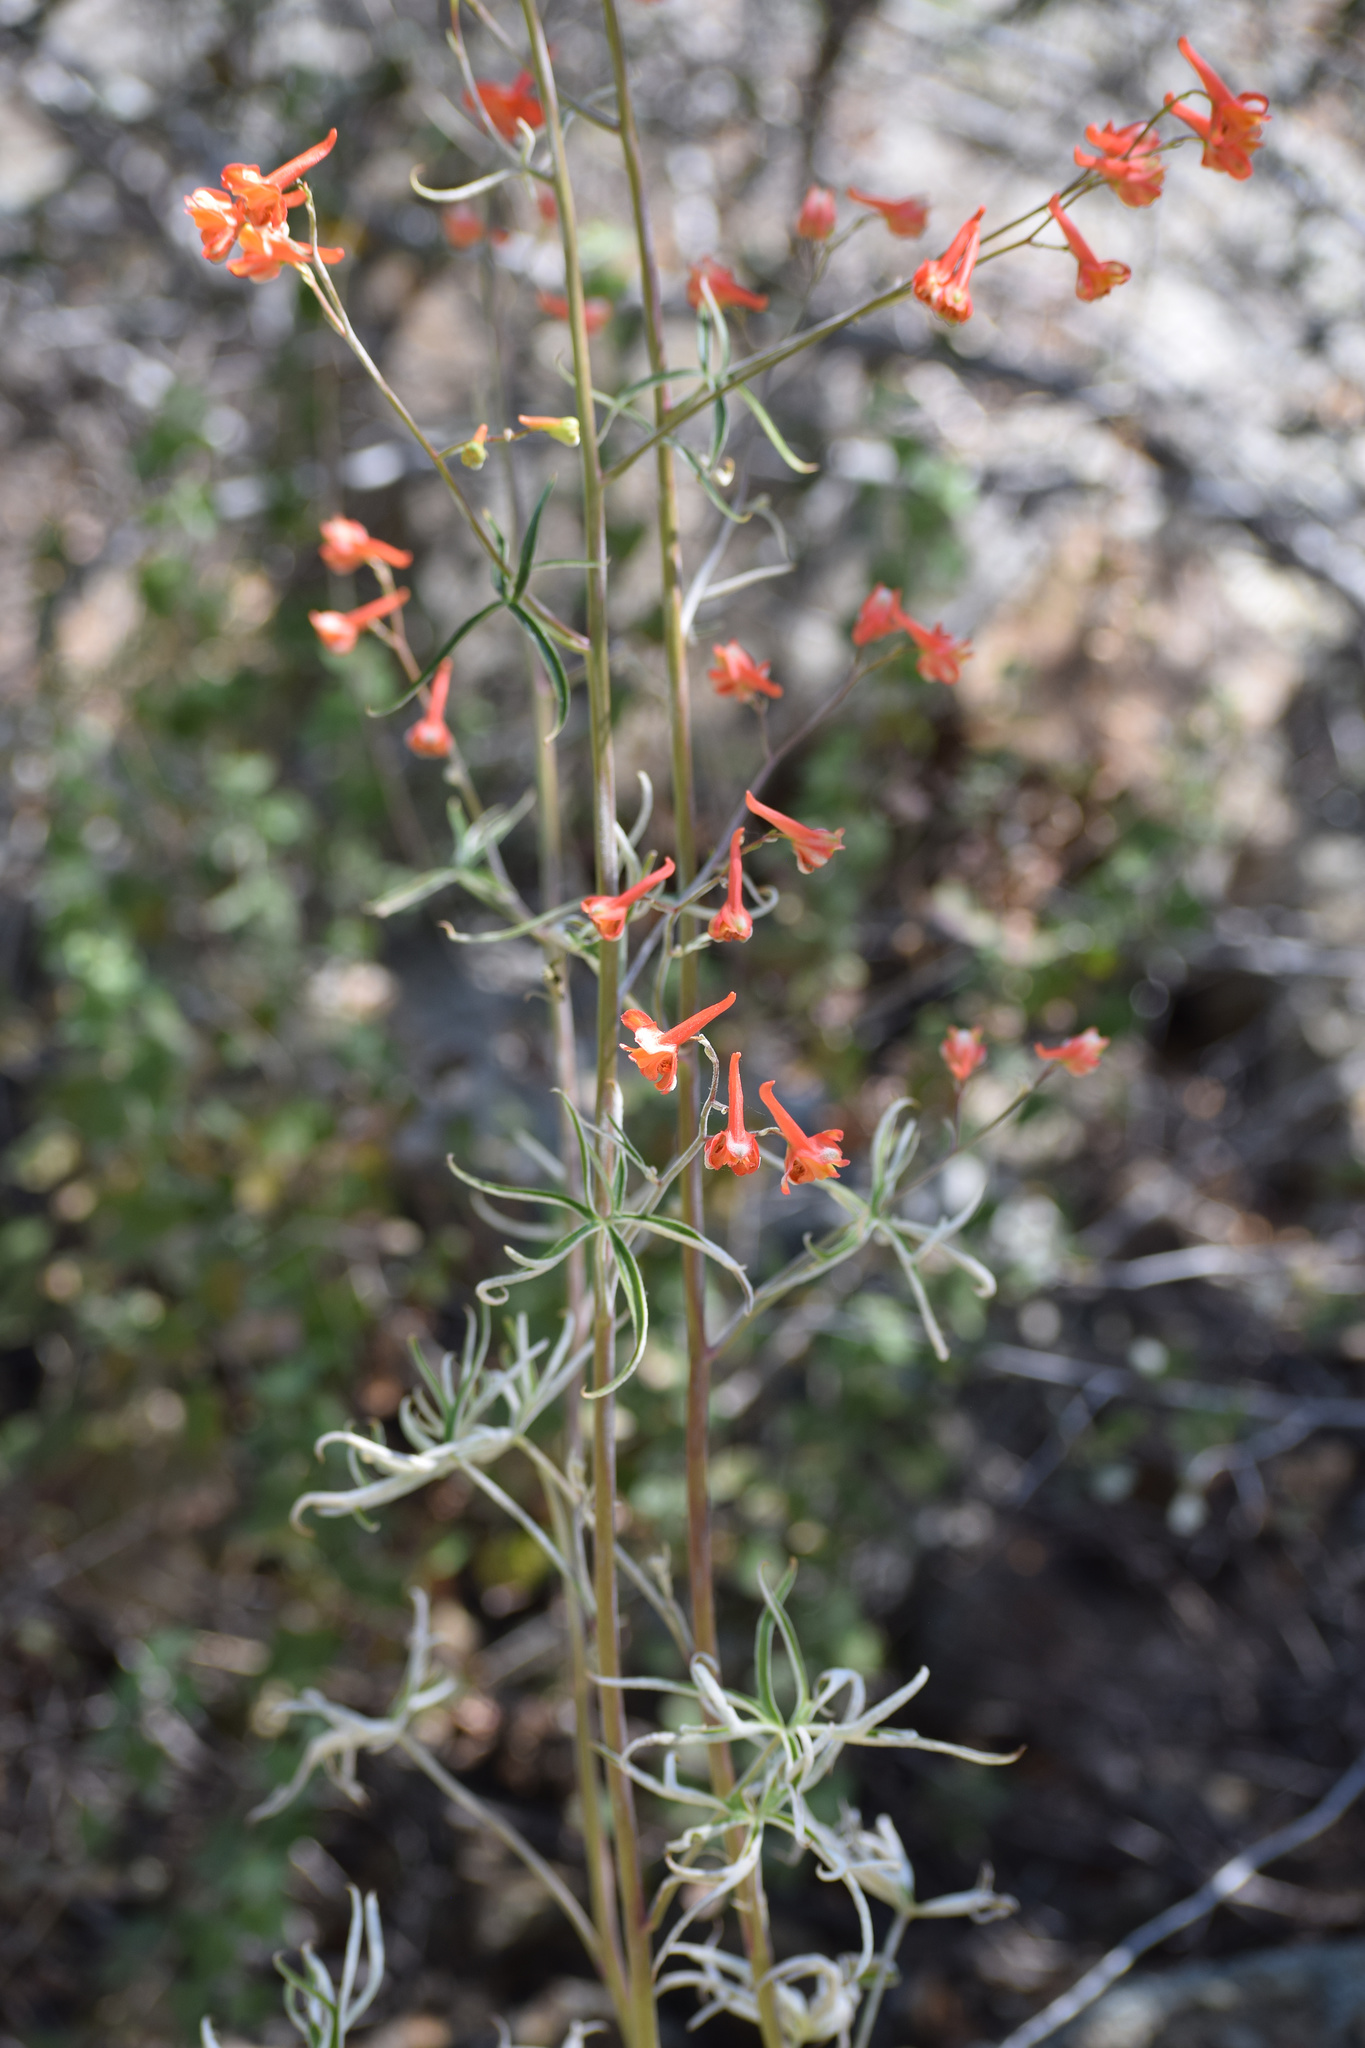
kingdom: Plantae
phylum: Tracheophyta
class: Magnoliopsida
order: Ranunculales
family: Ranunculaceae
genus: Delphinium
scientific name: Delphinium cardinale
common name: Scarlet larkspur
